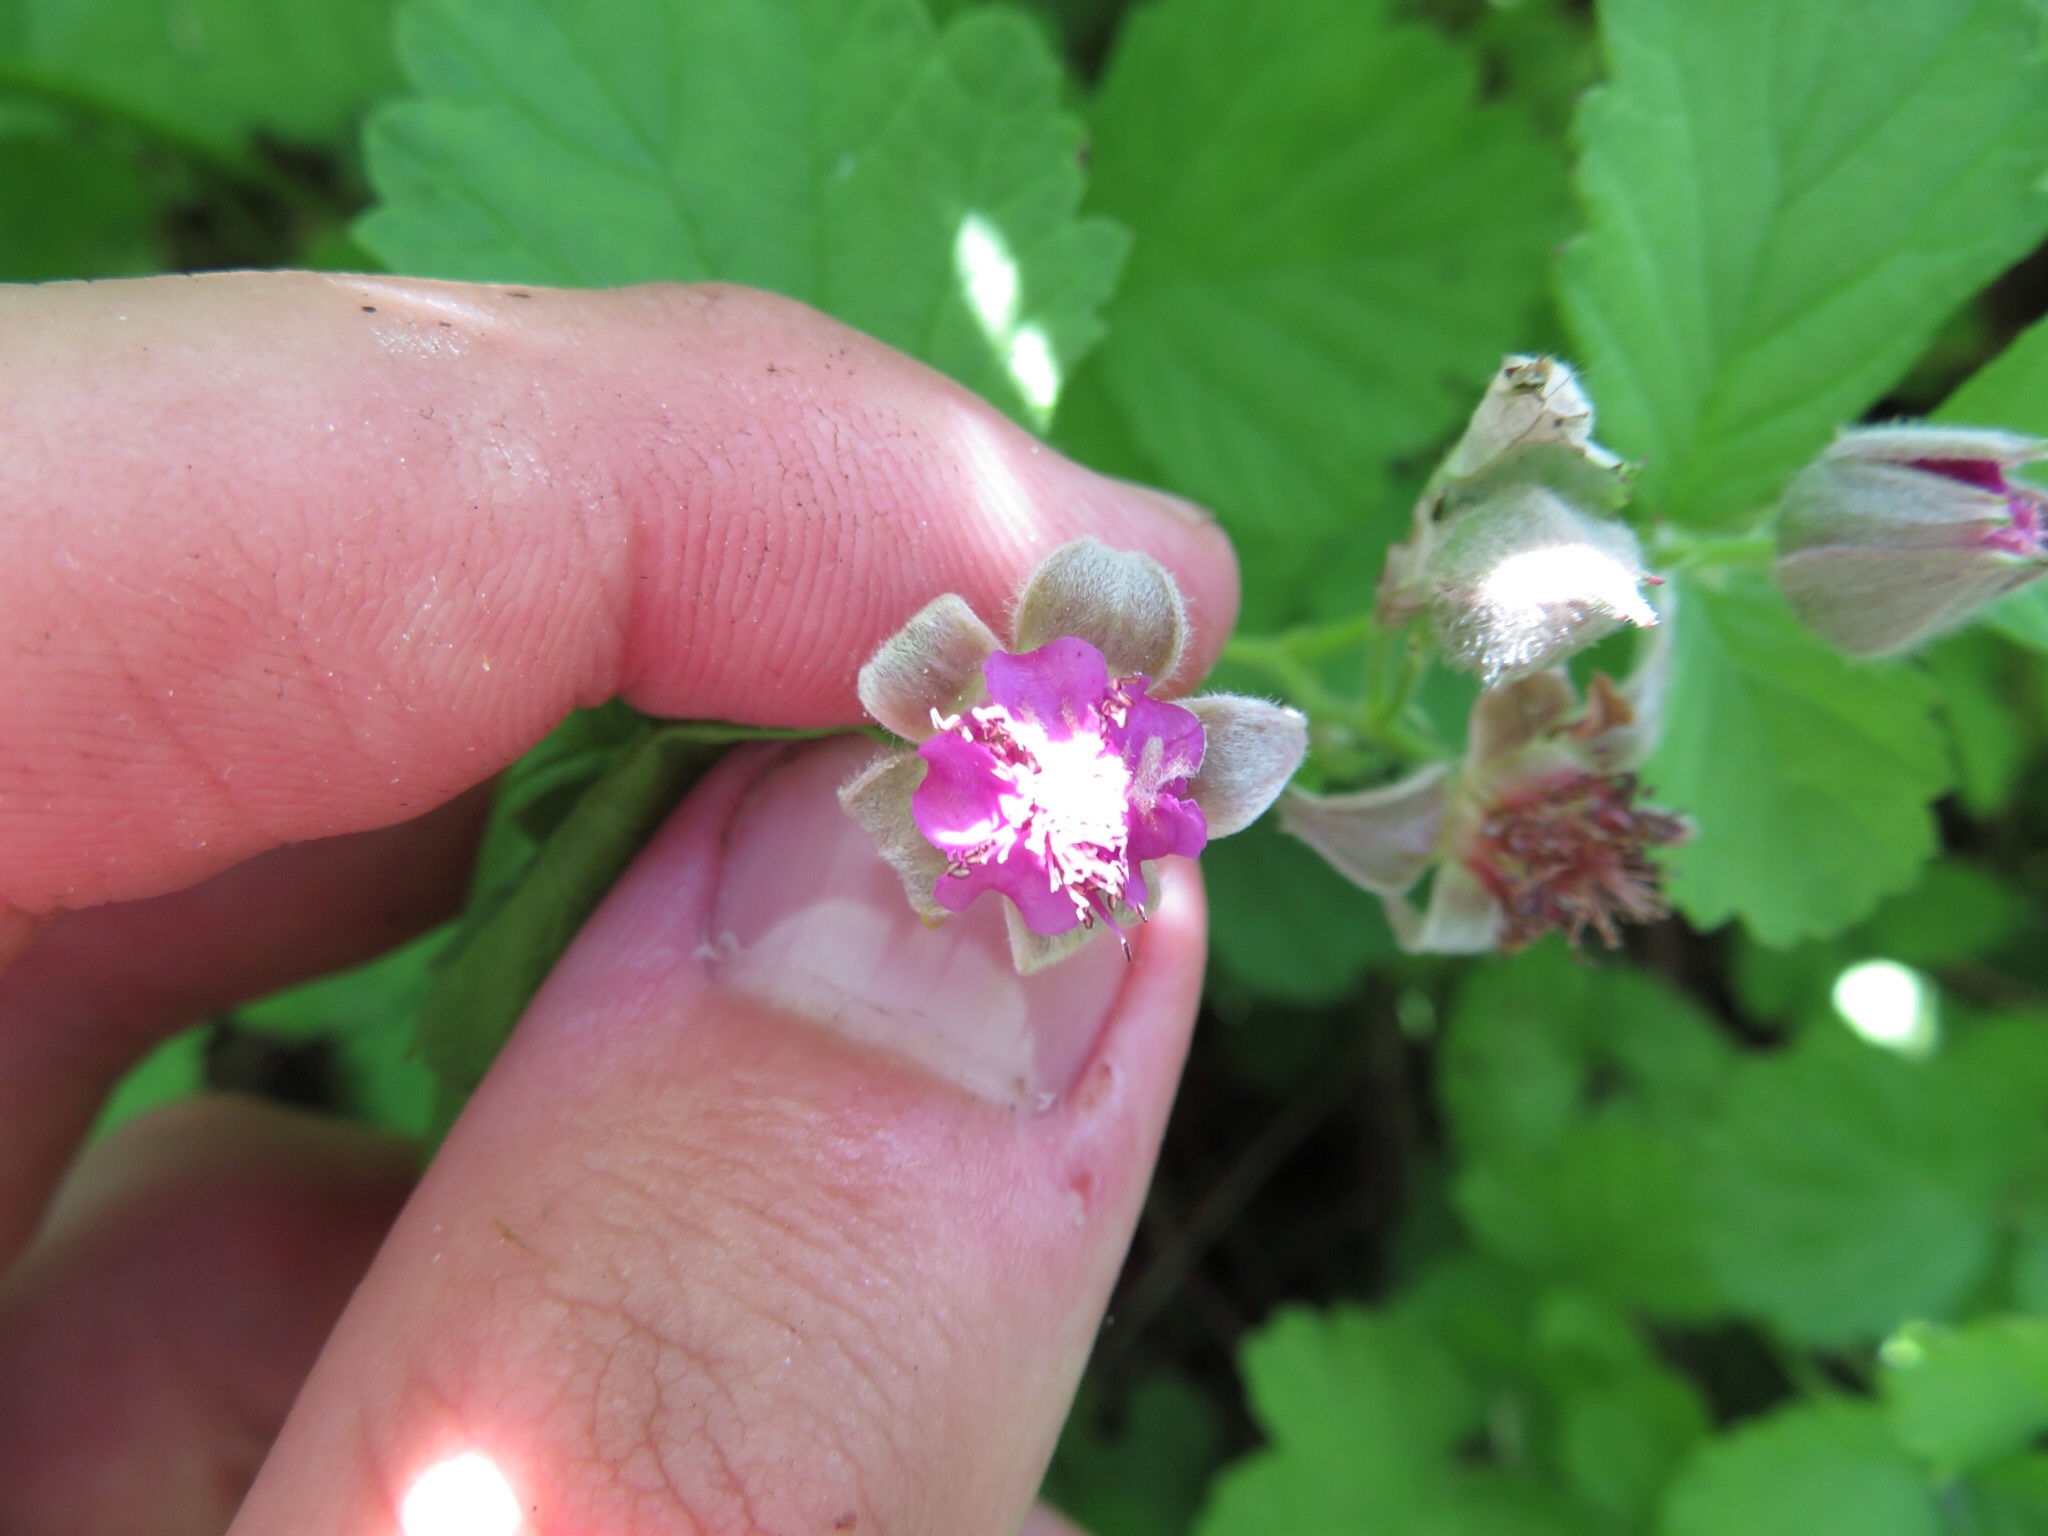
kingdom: Plantae
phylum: Tracheophyta
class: Magnoliopsida
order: Rosales
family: Rosaceae
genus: Rubus
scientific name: Rubus parvifolius
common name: Threeleaf blackberry
